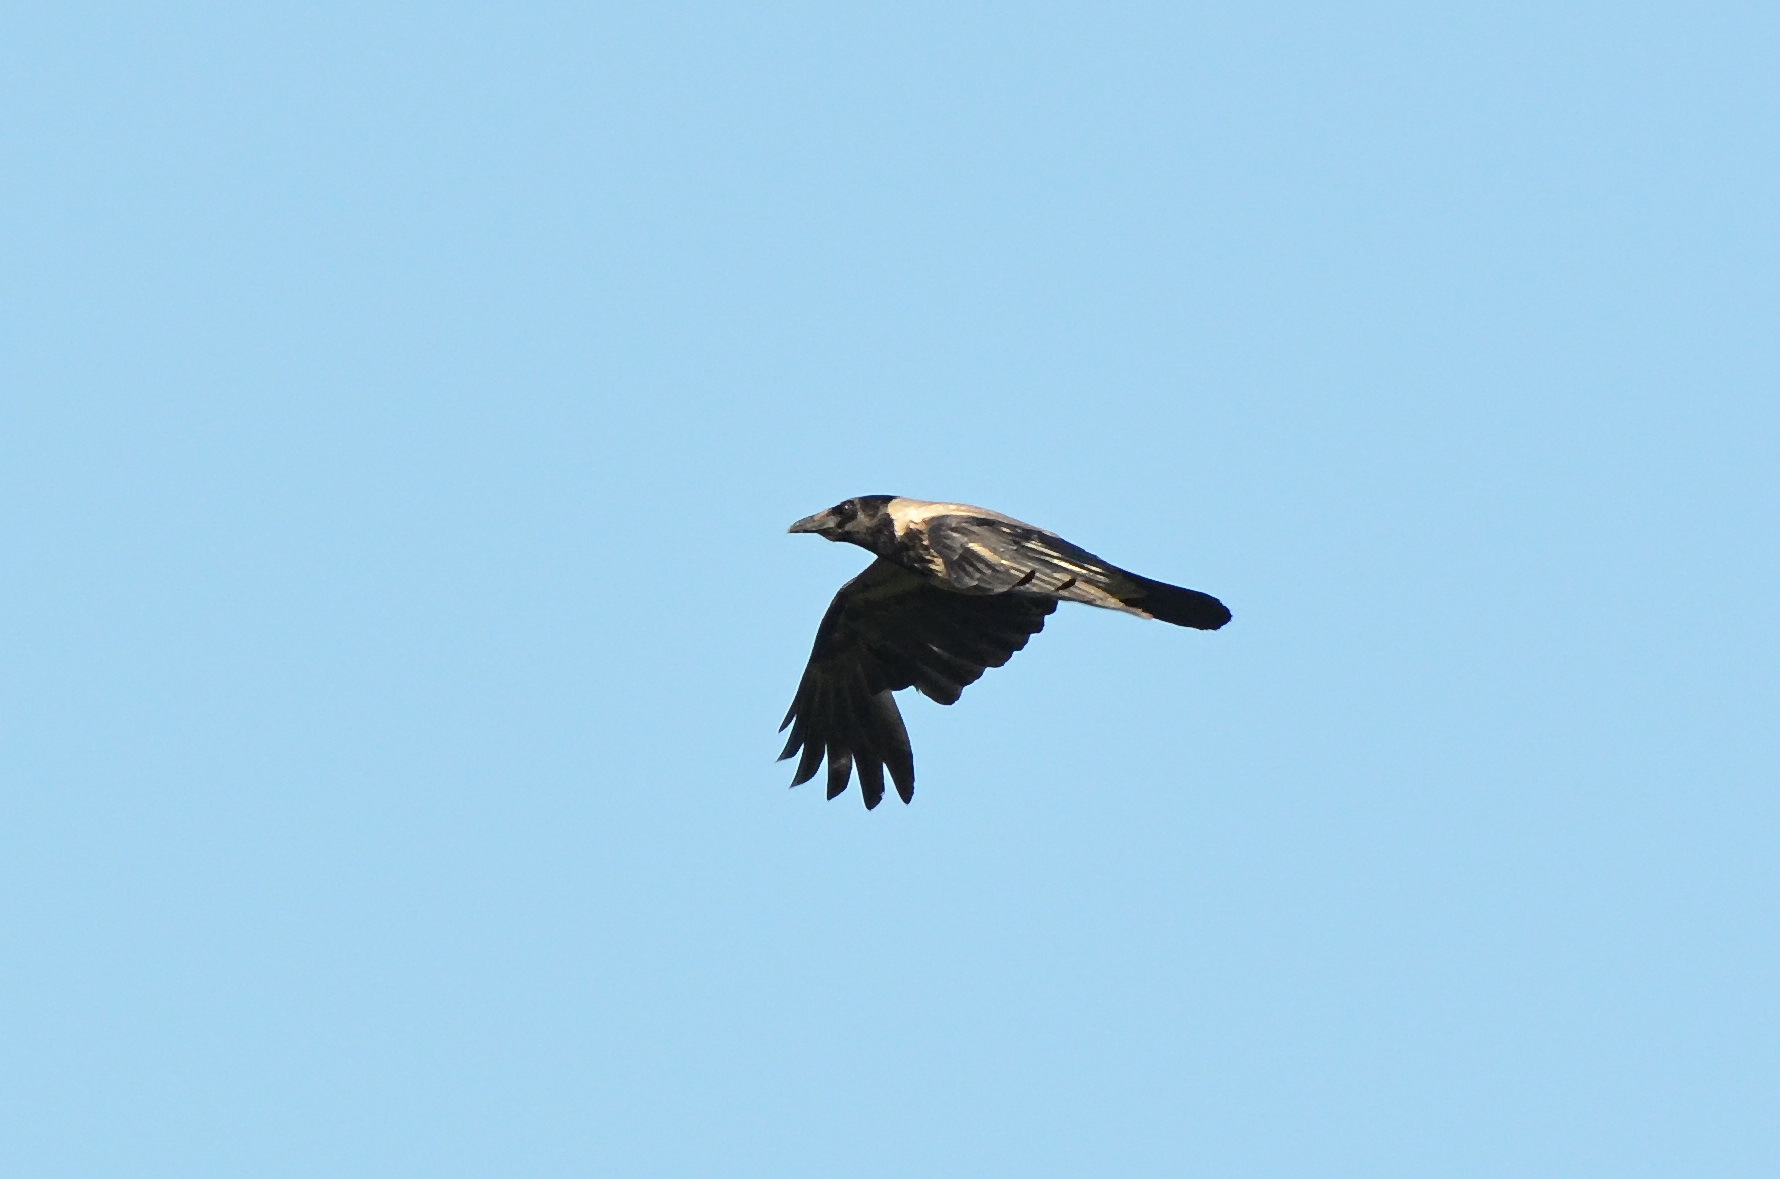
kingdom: Animalia
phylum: Chordata
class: Aves
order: Passeriformes
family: Corvidae
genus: Corvus
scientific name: Corvus cornix
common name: Hooded crow
